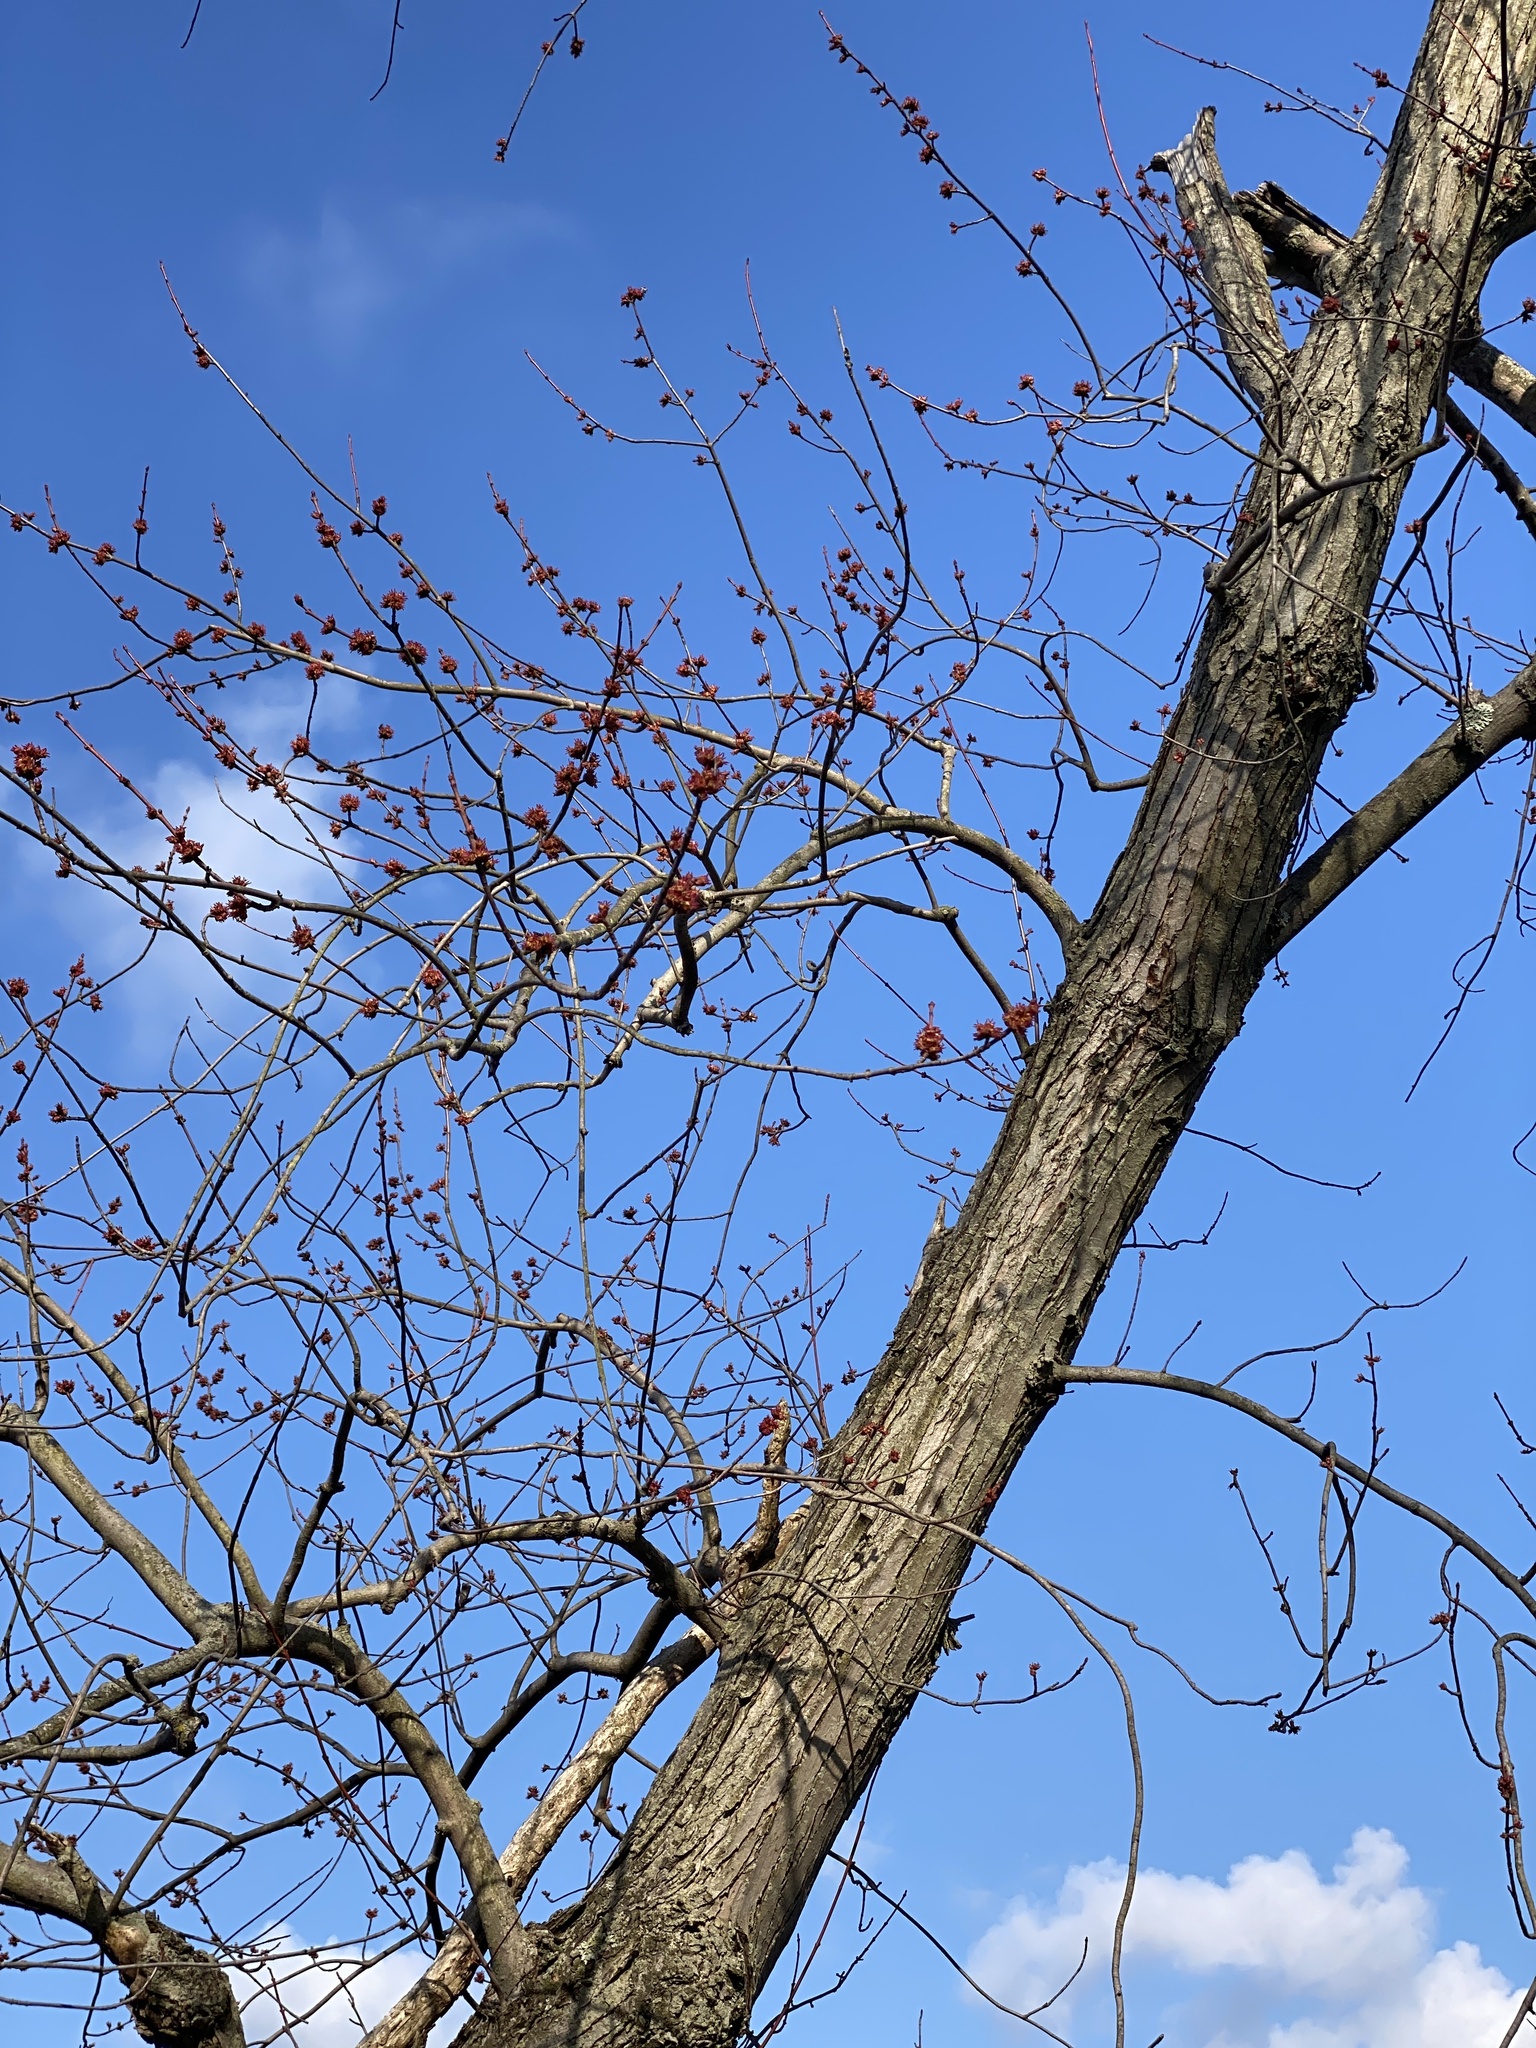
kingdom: Plantae
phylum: Tracheophyta
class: Magnoliopsida
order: Sapindales
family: Sapindaceae
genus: Acer
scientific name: Acer saccharinum
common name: Silver maple
